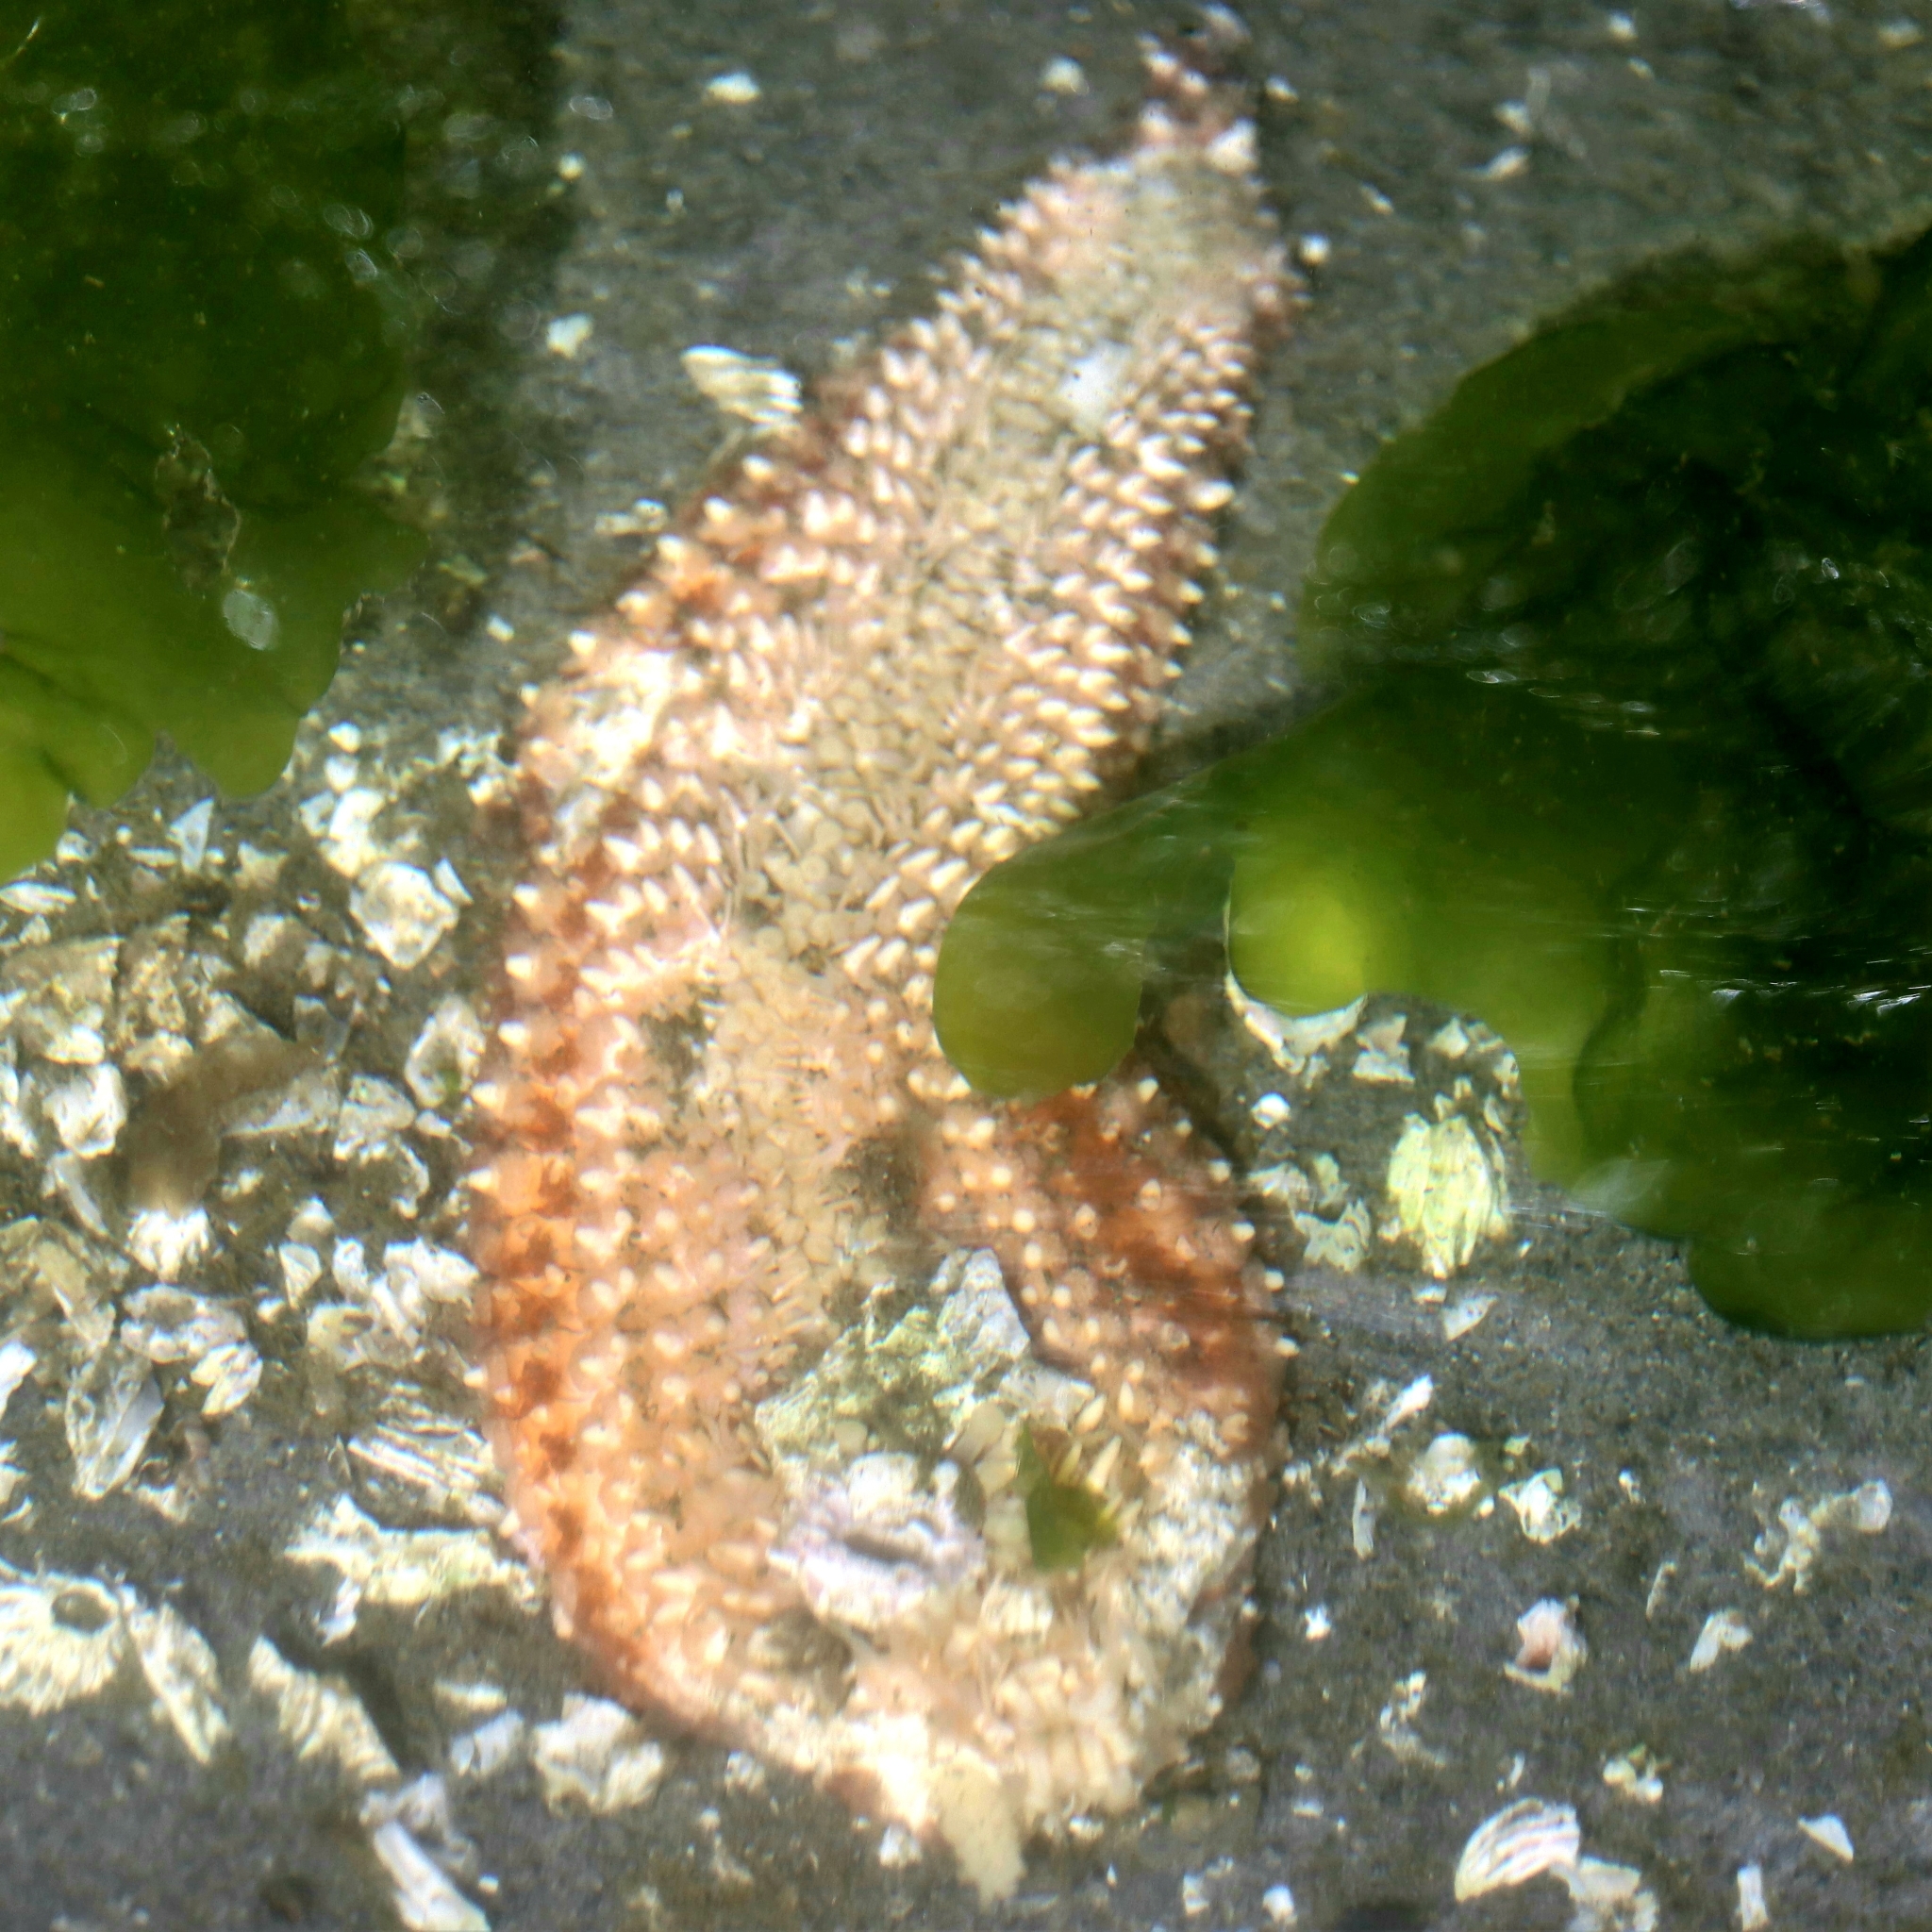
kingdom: Animalia
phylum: Echinodermata
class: Asteroidea
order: Forcipulatida
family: Asteriidae
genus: Pisaster
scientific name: Pisaster ochraceus
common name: Ochre stars
